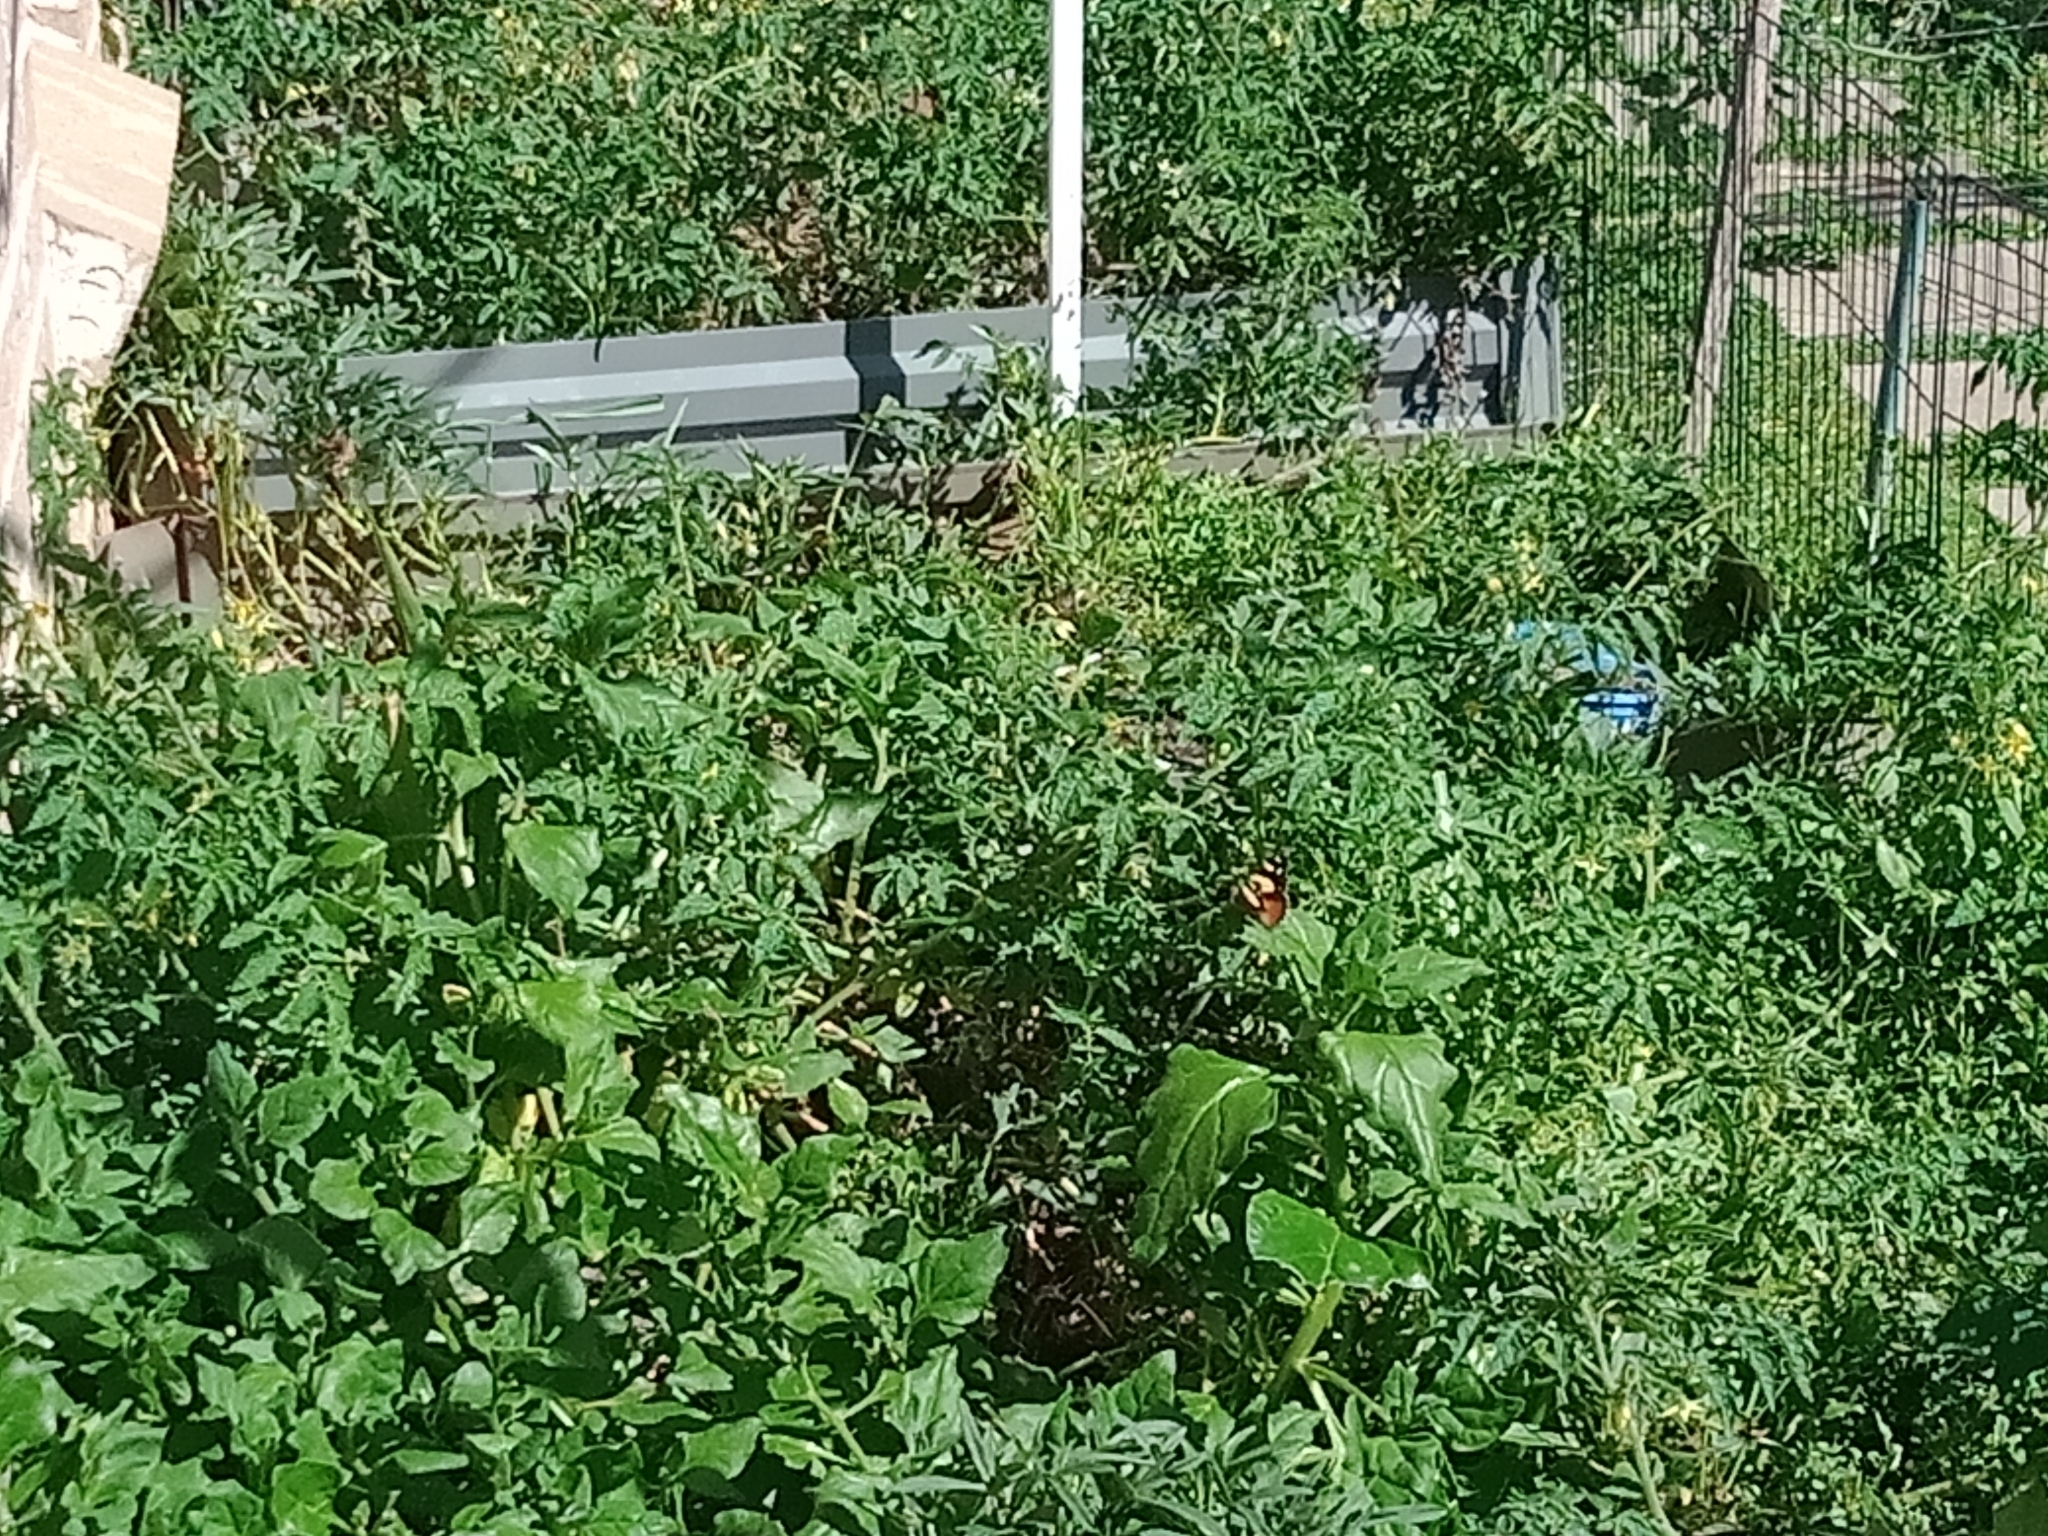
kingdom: Animalia
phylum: Arthropoda
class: Insecta
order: Lepidoptera
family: Nymphalidae
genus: Vanessa
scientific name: Vanessa itea
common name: Yellow admiral
